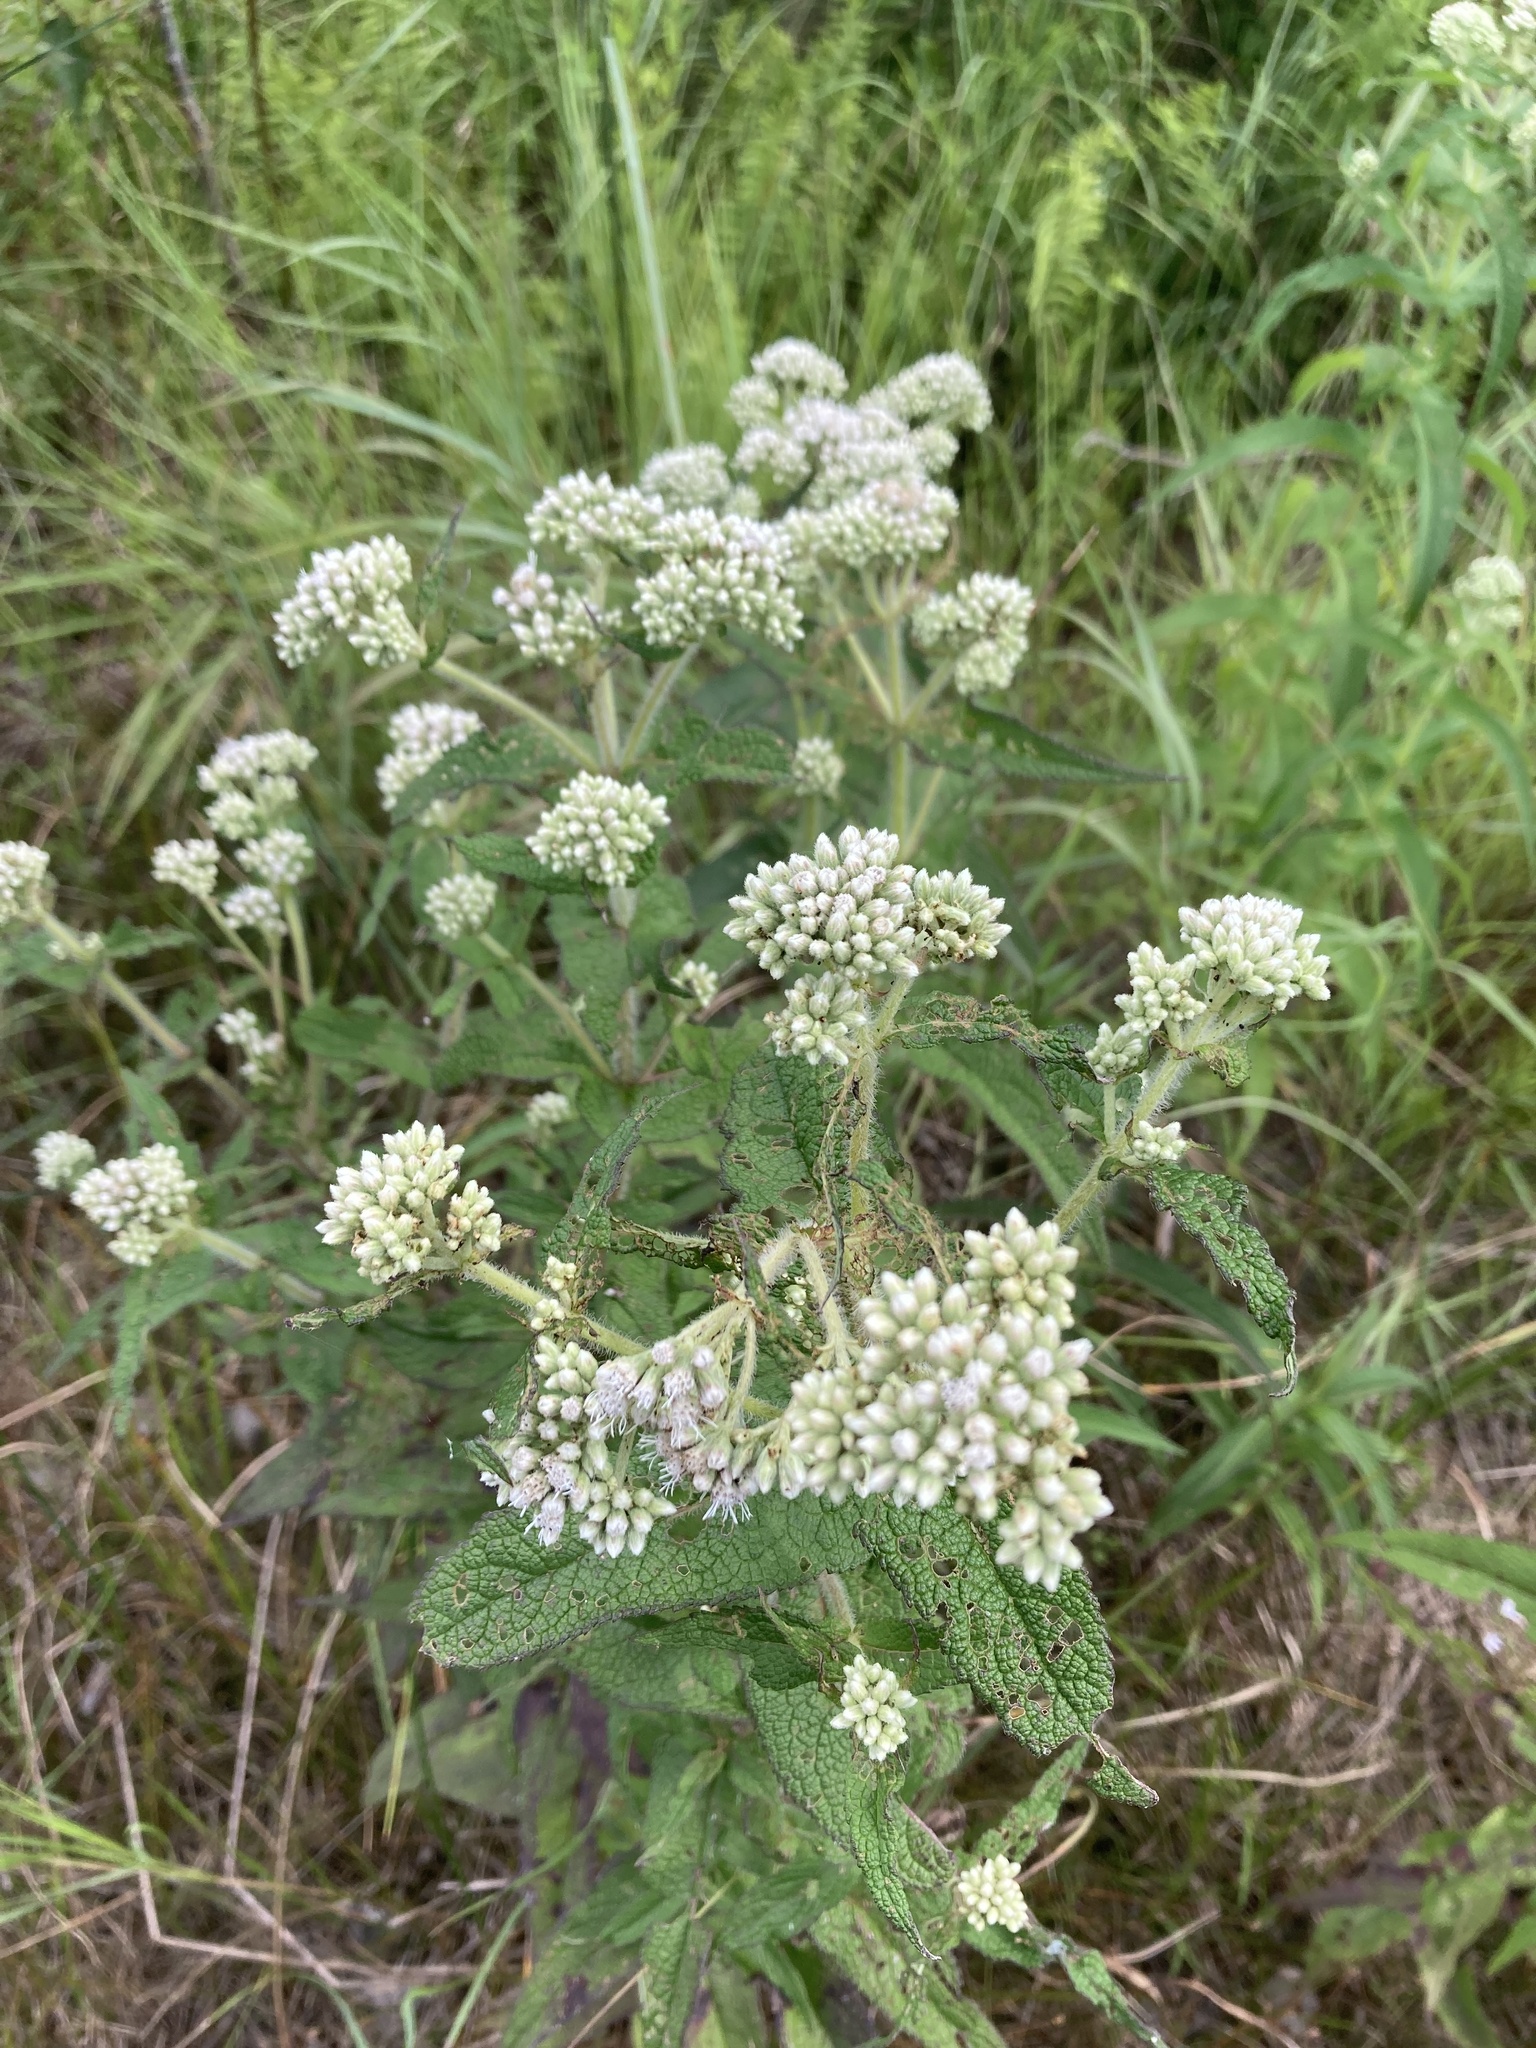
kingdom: Plantae
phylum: Tracheophyta
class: Magnoliopsida
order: Asterales
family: Asteraceae
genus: Eupatorium
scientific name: Eupatorium perfoliatum
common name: Boneset
